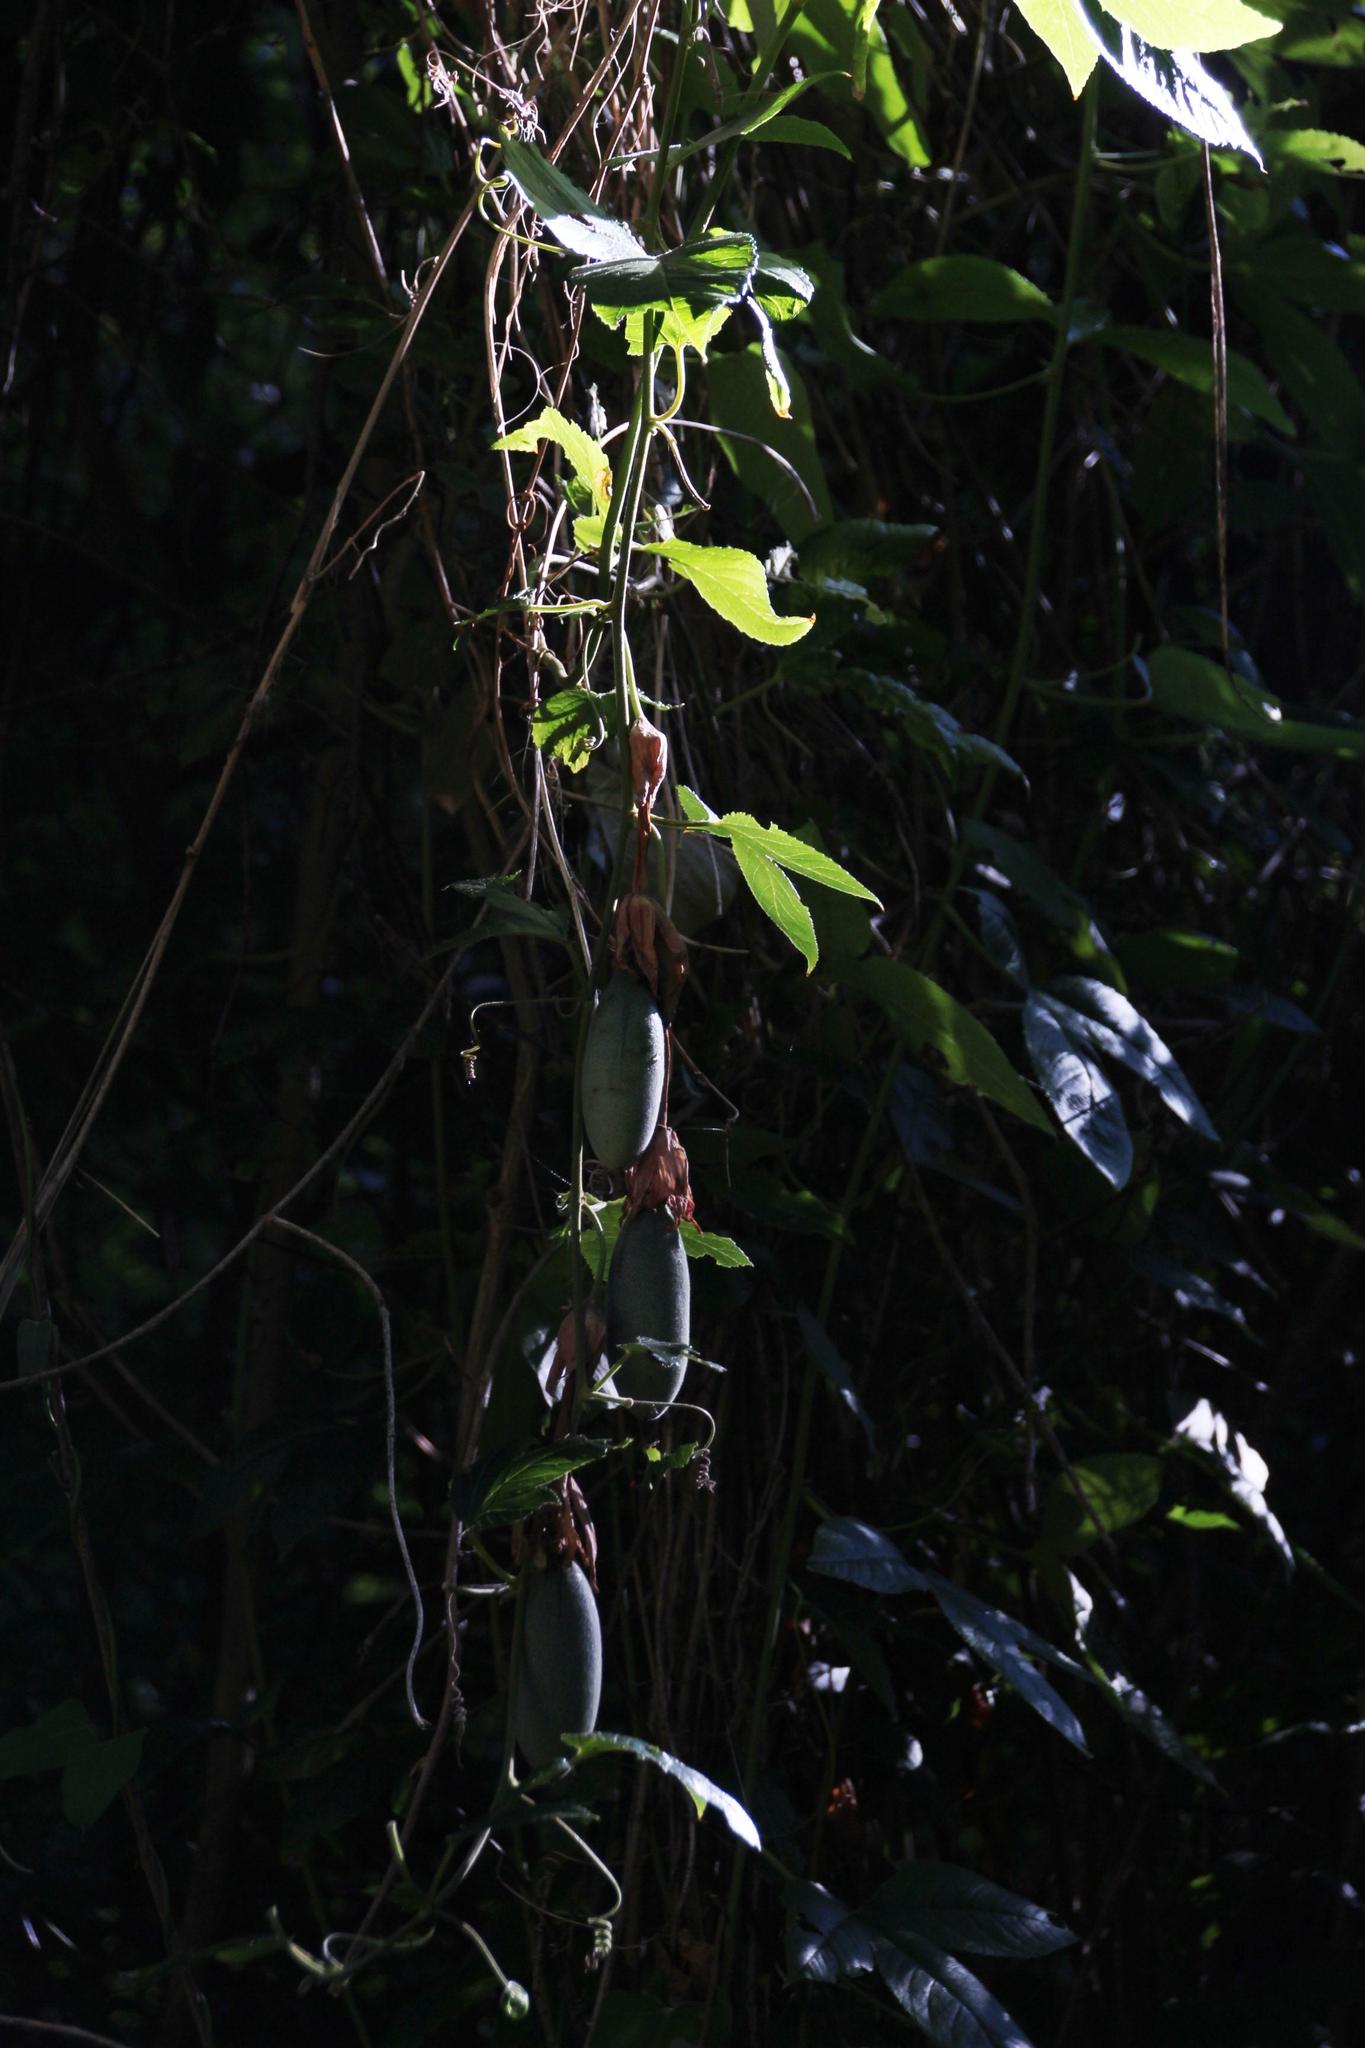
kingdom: Plantae
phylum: Tracheophyta
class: Magnoliopsida
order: Malpighiales
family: Passifloraceae
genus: Passiflora
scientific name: Passiflora tarminiana
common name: Banana poka
